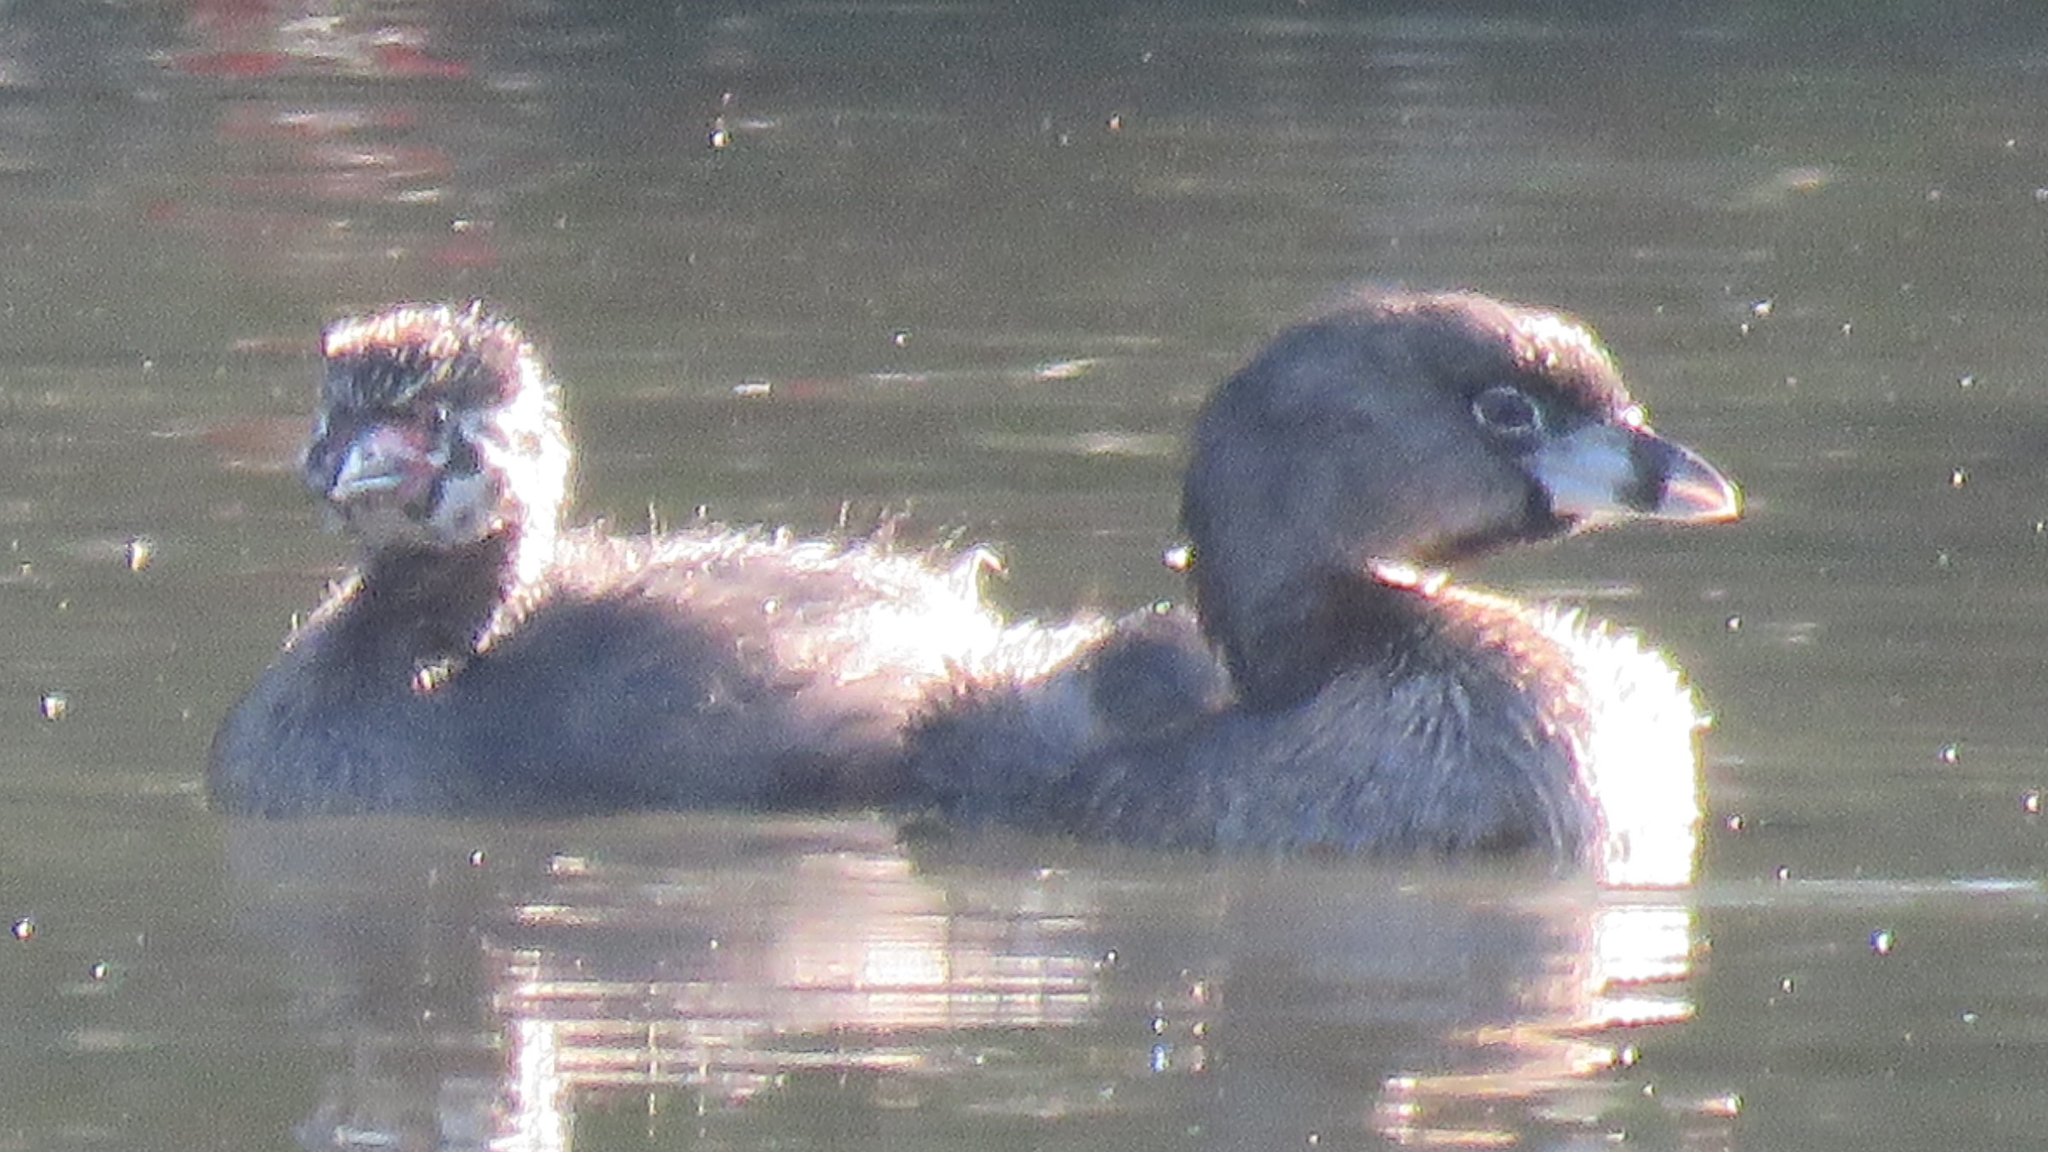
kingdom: Animalia
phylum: Chordata
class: Aves
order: Podicipediformes
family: Podicipedidae
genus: Podilymbus
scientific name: Podilymbus podiceps
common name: Pied-billed grebe
